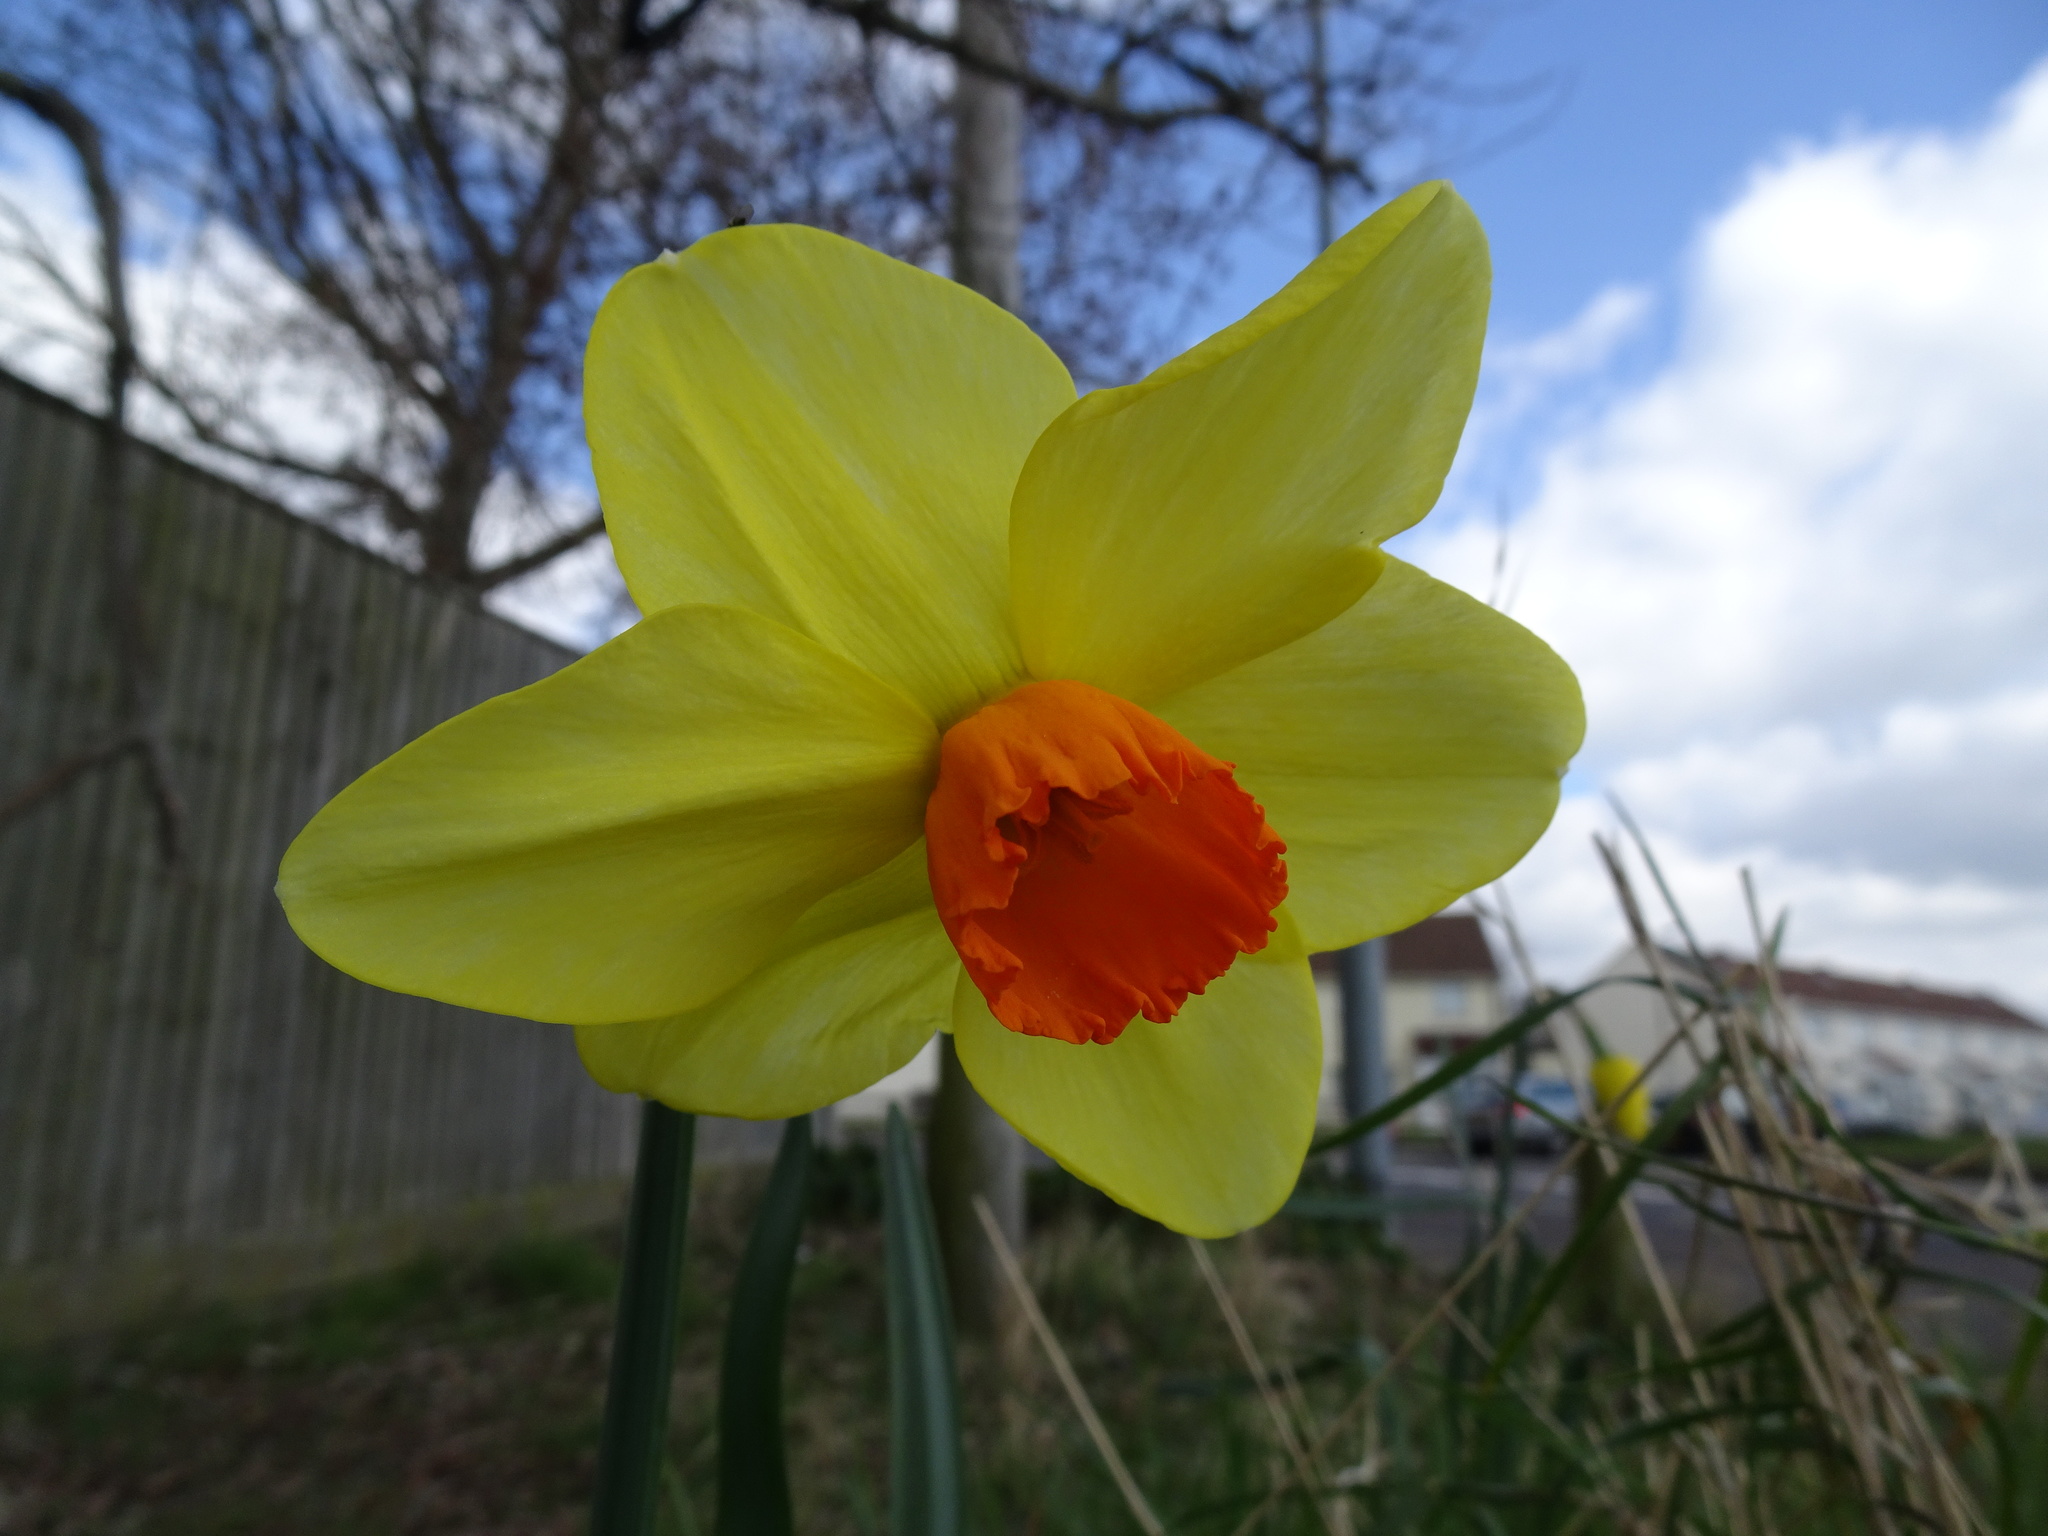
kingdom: Plantae
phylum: Tracheophyta
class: Liliopsida
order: Asparagales
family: Amaryllidaceae
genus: Narcissus
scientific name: Narcissus
